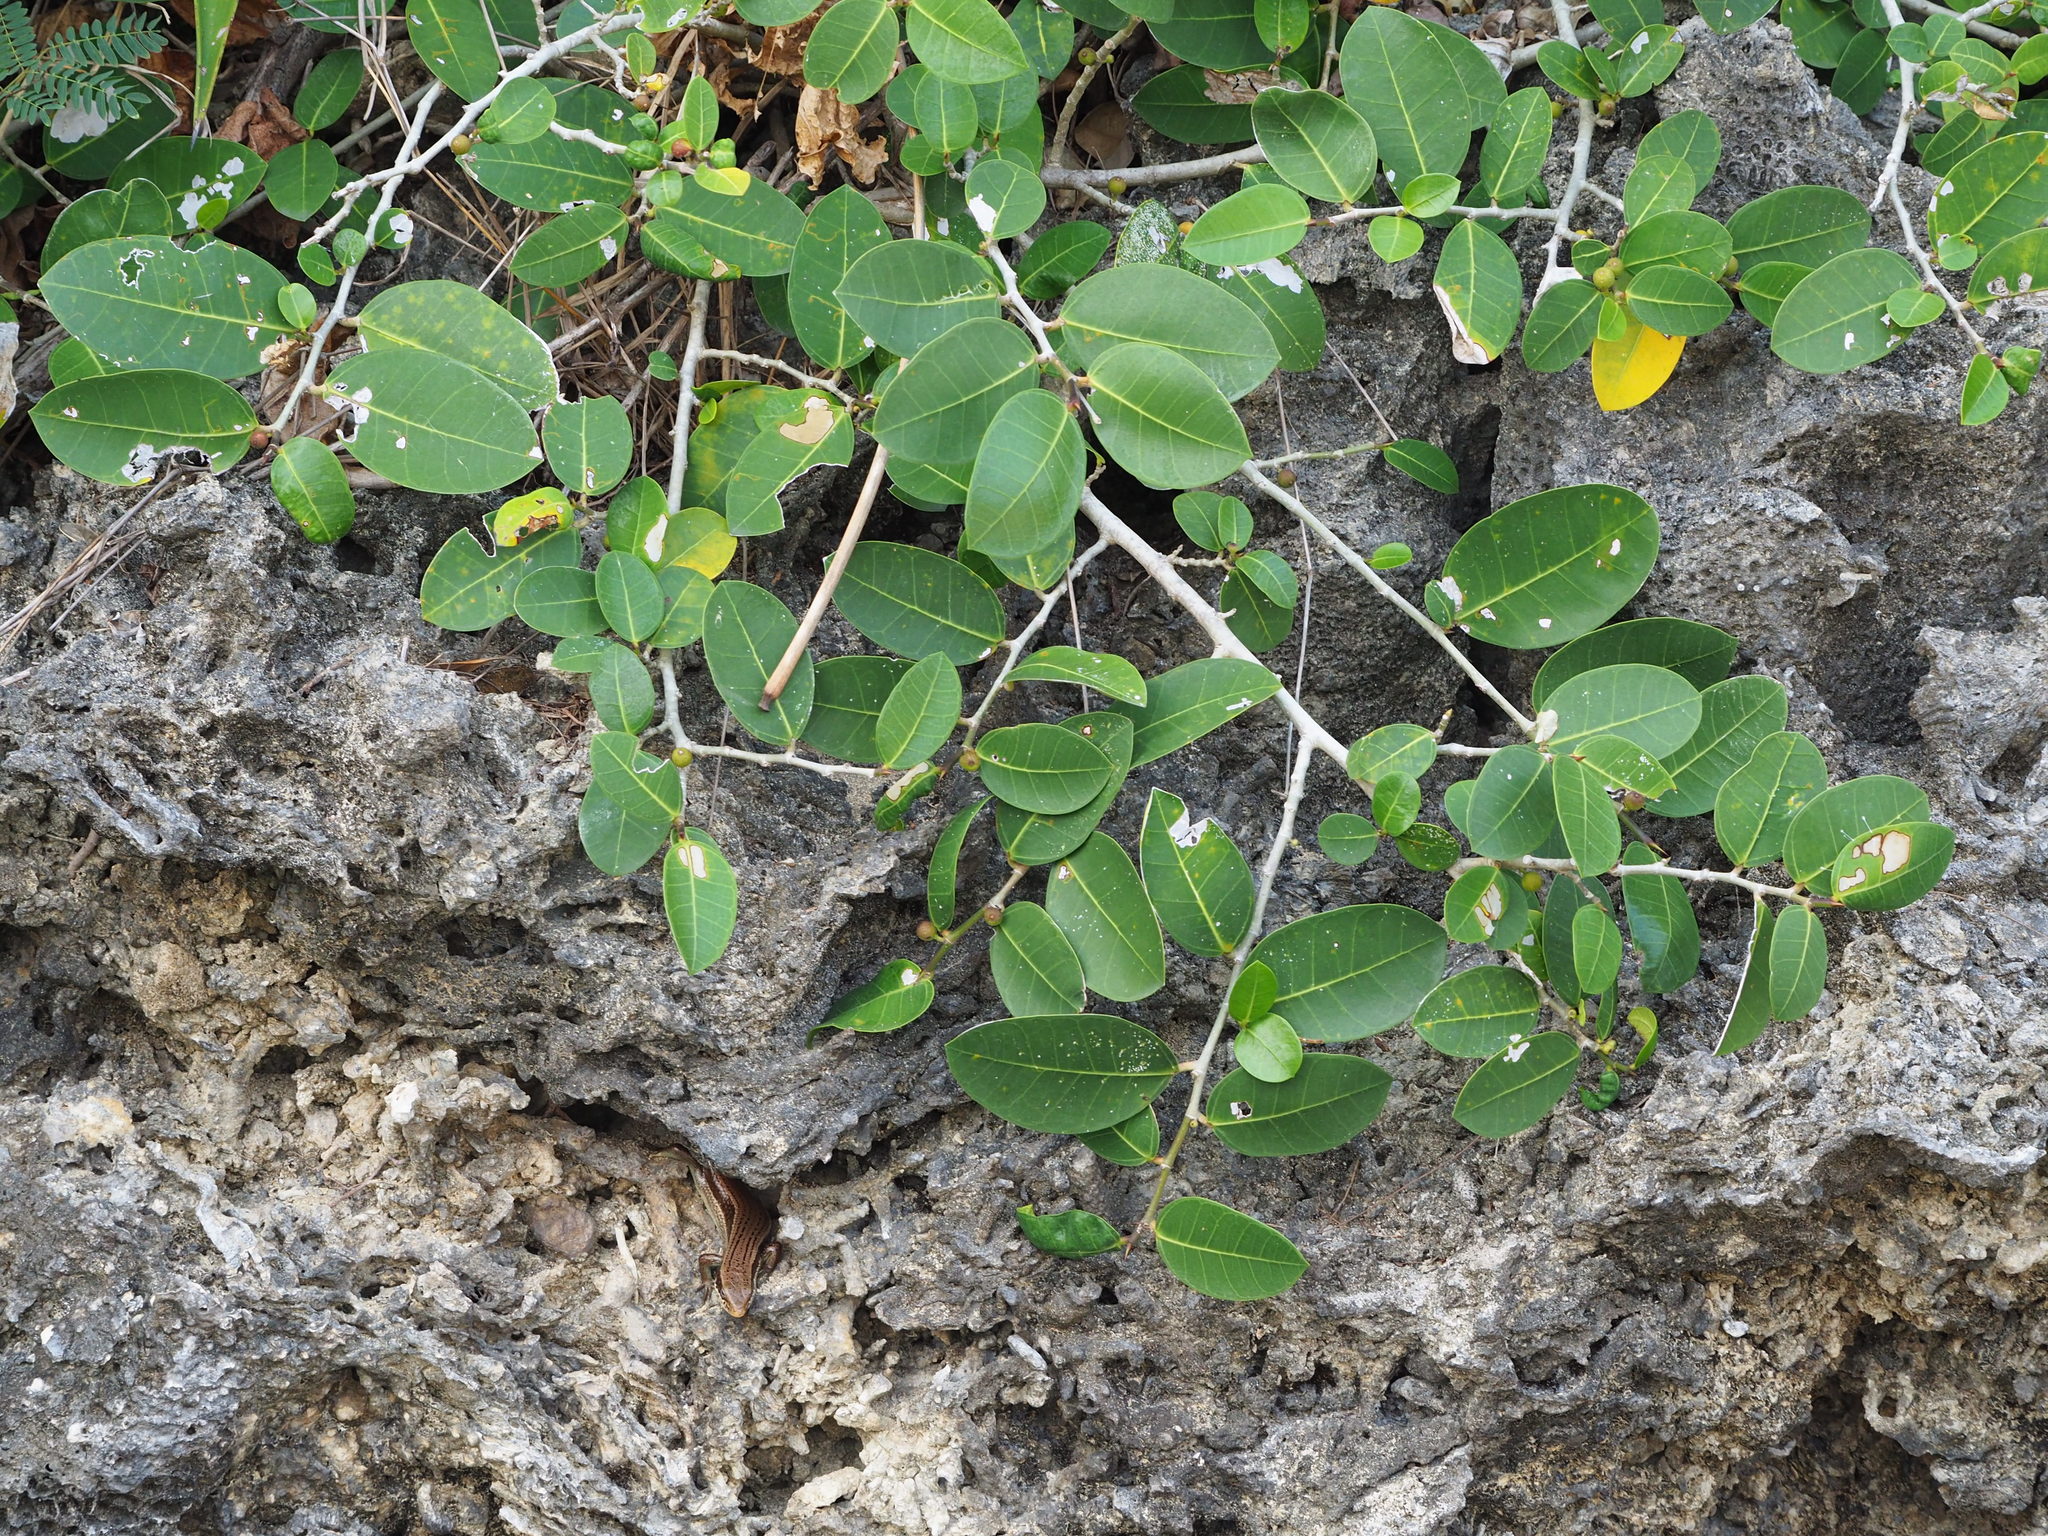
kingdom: Plantae
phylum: Tracheophyta
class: Magnoliopsida
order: Rosales
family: Moraceae
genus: Ficus
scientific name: Ficus tinctoria
